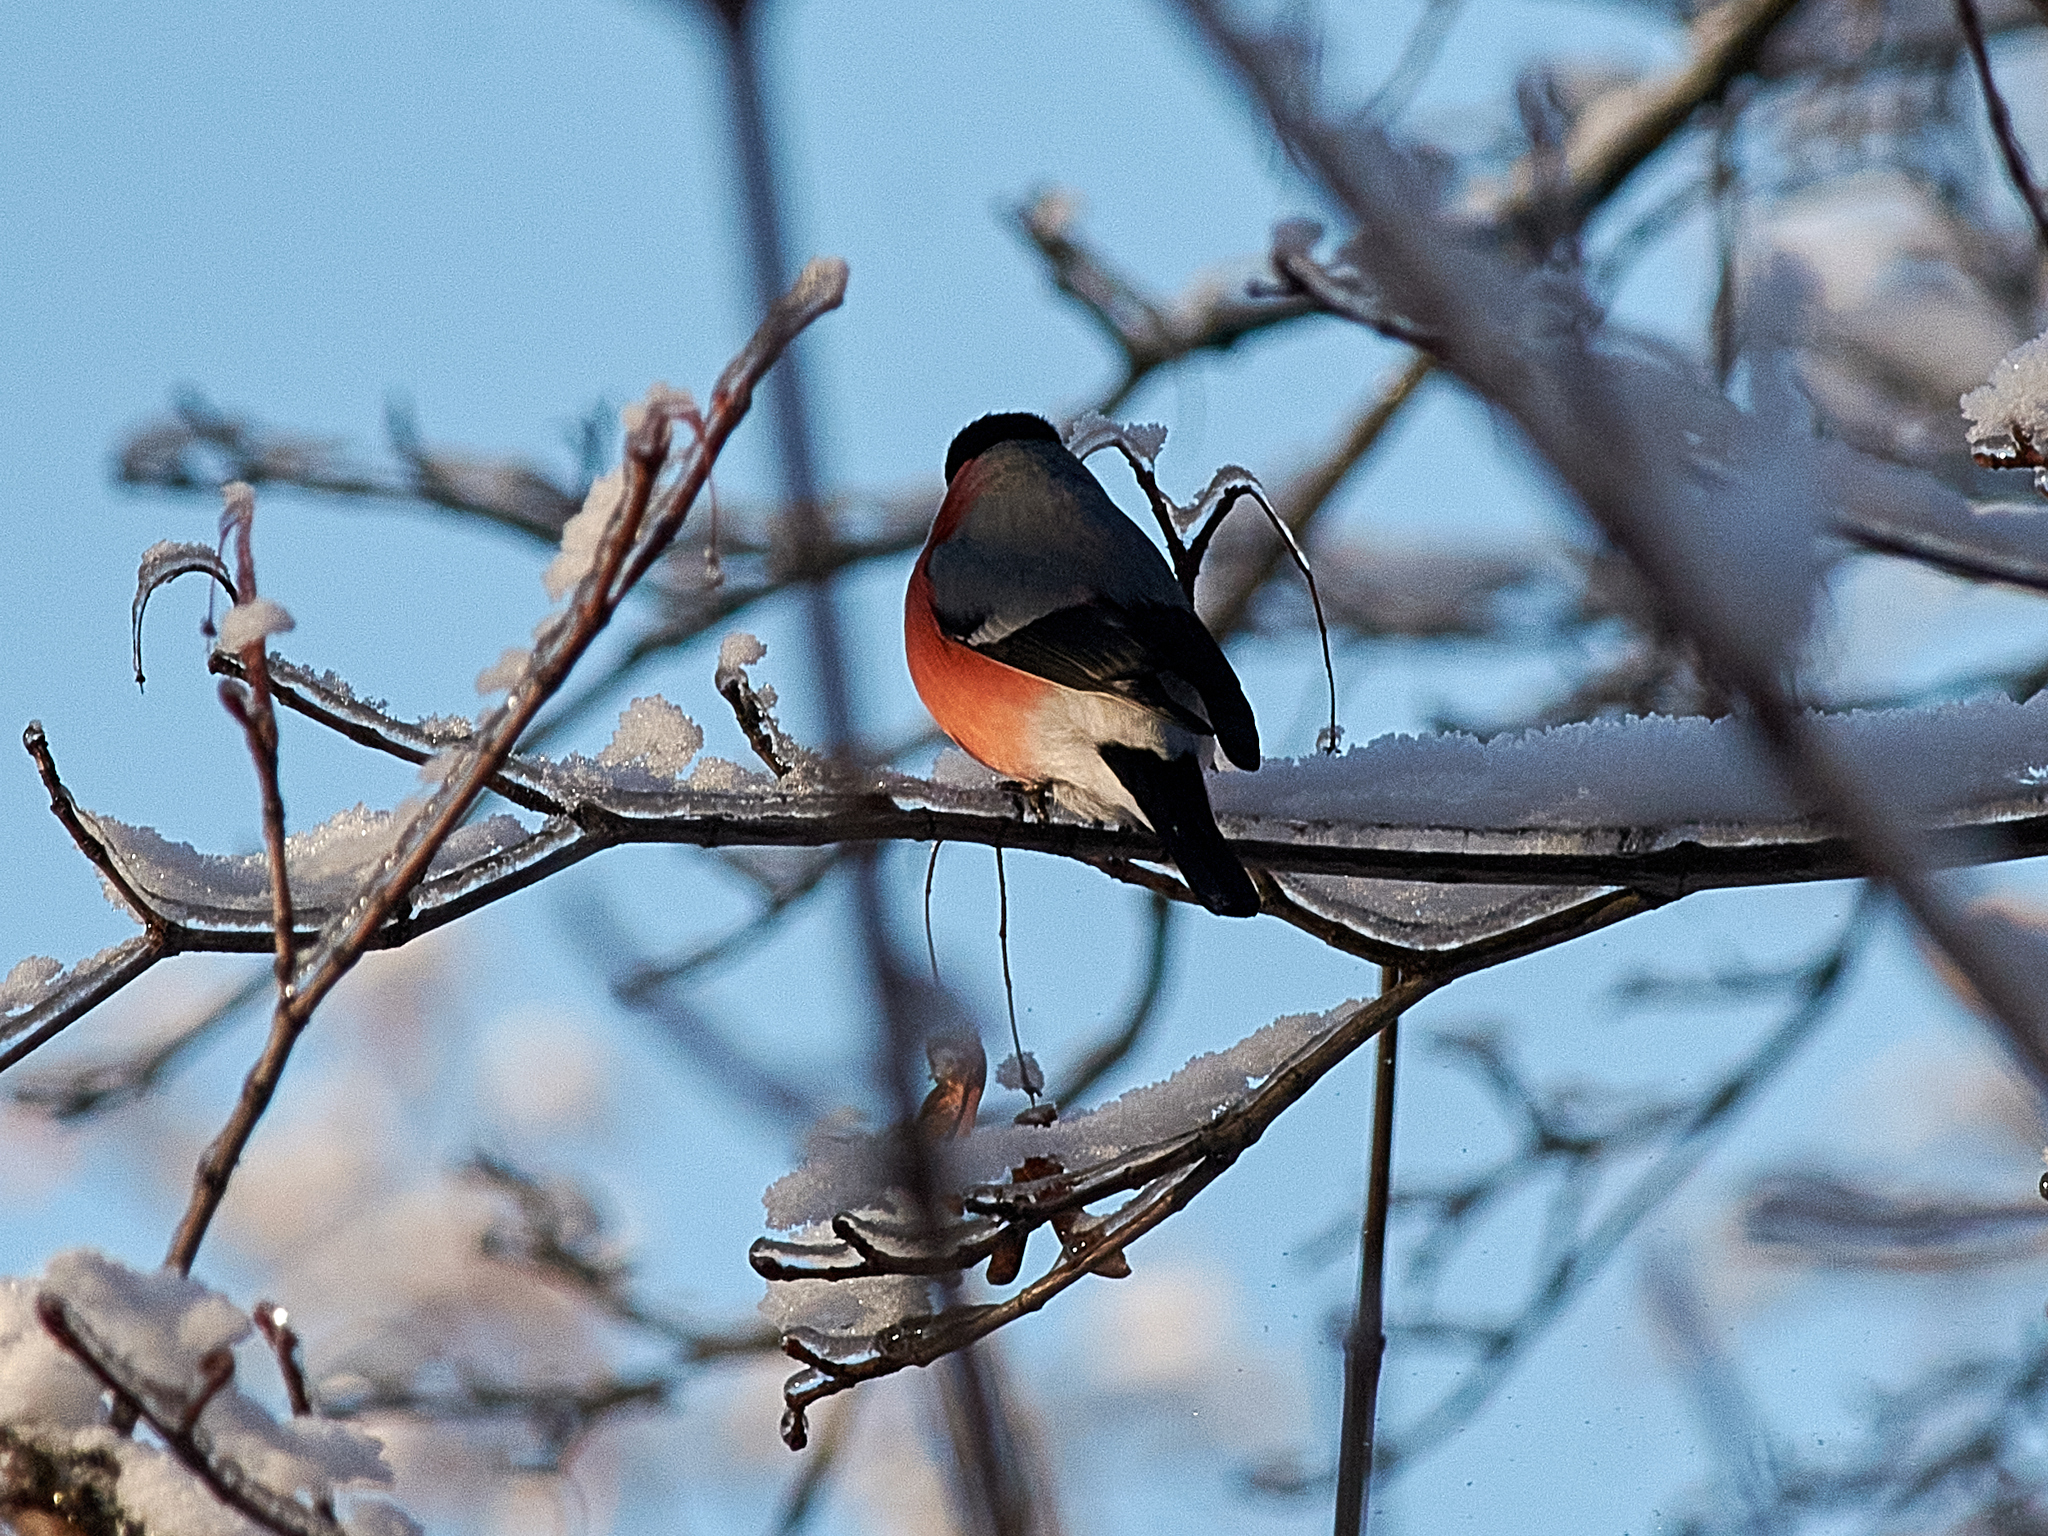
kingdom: Animalia
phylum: Chordata
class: Aves
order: Passeriformes
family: Fringillidae
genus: Pyrrhula
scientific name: Pyrrhula pyrrhula
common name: Eurasian bullfinch
